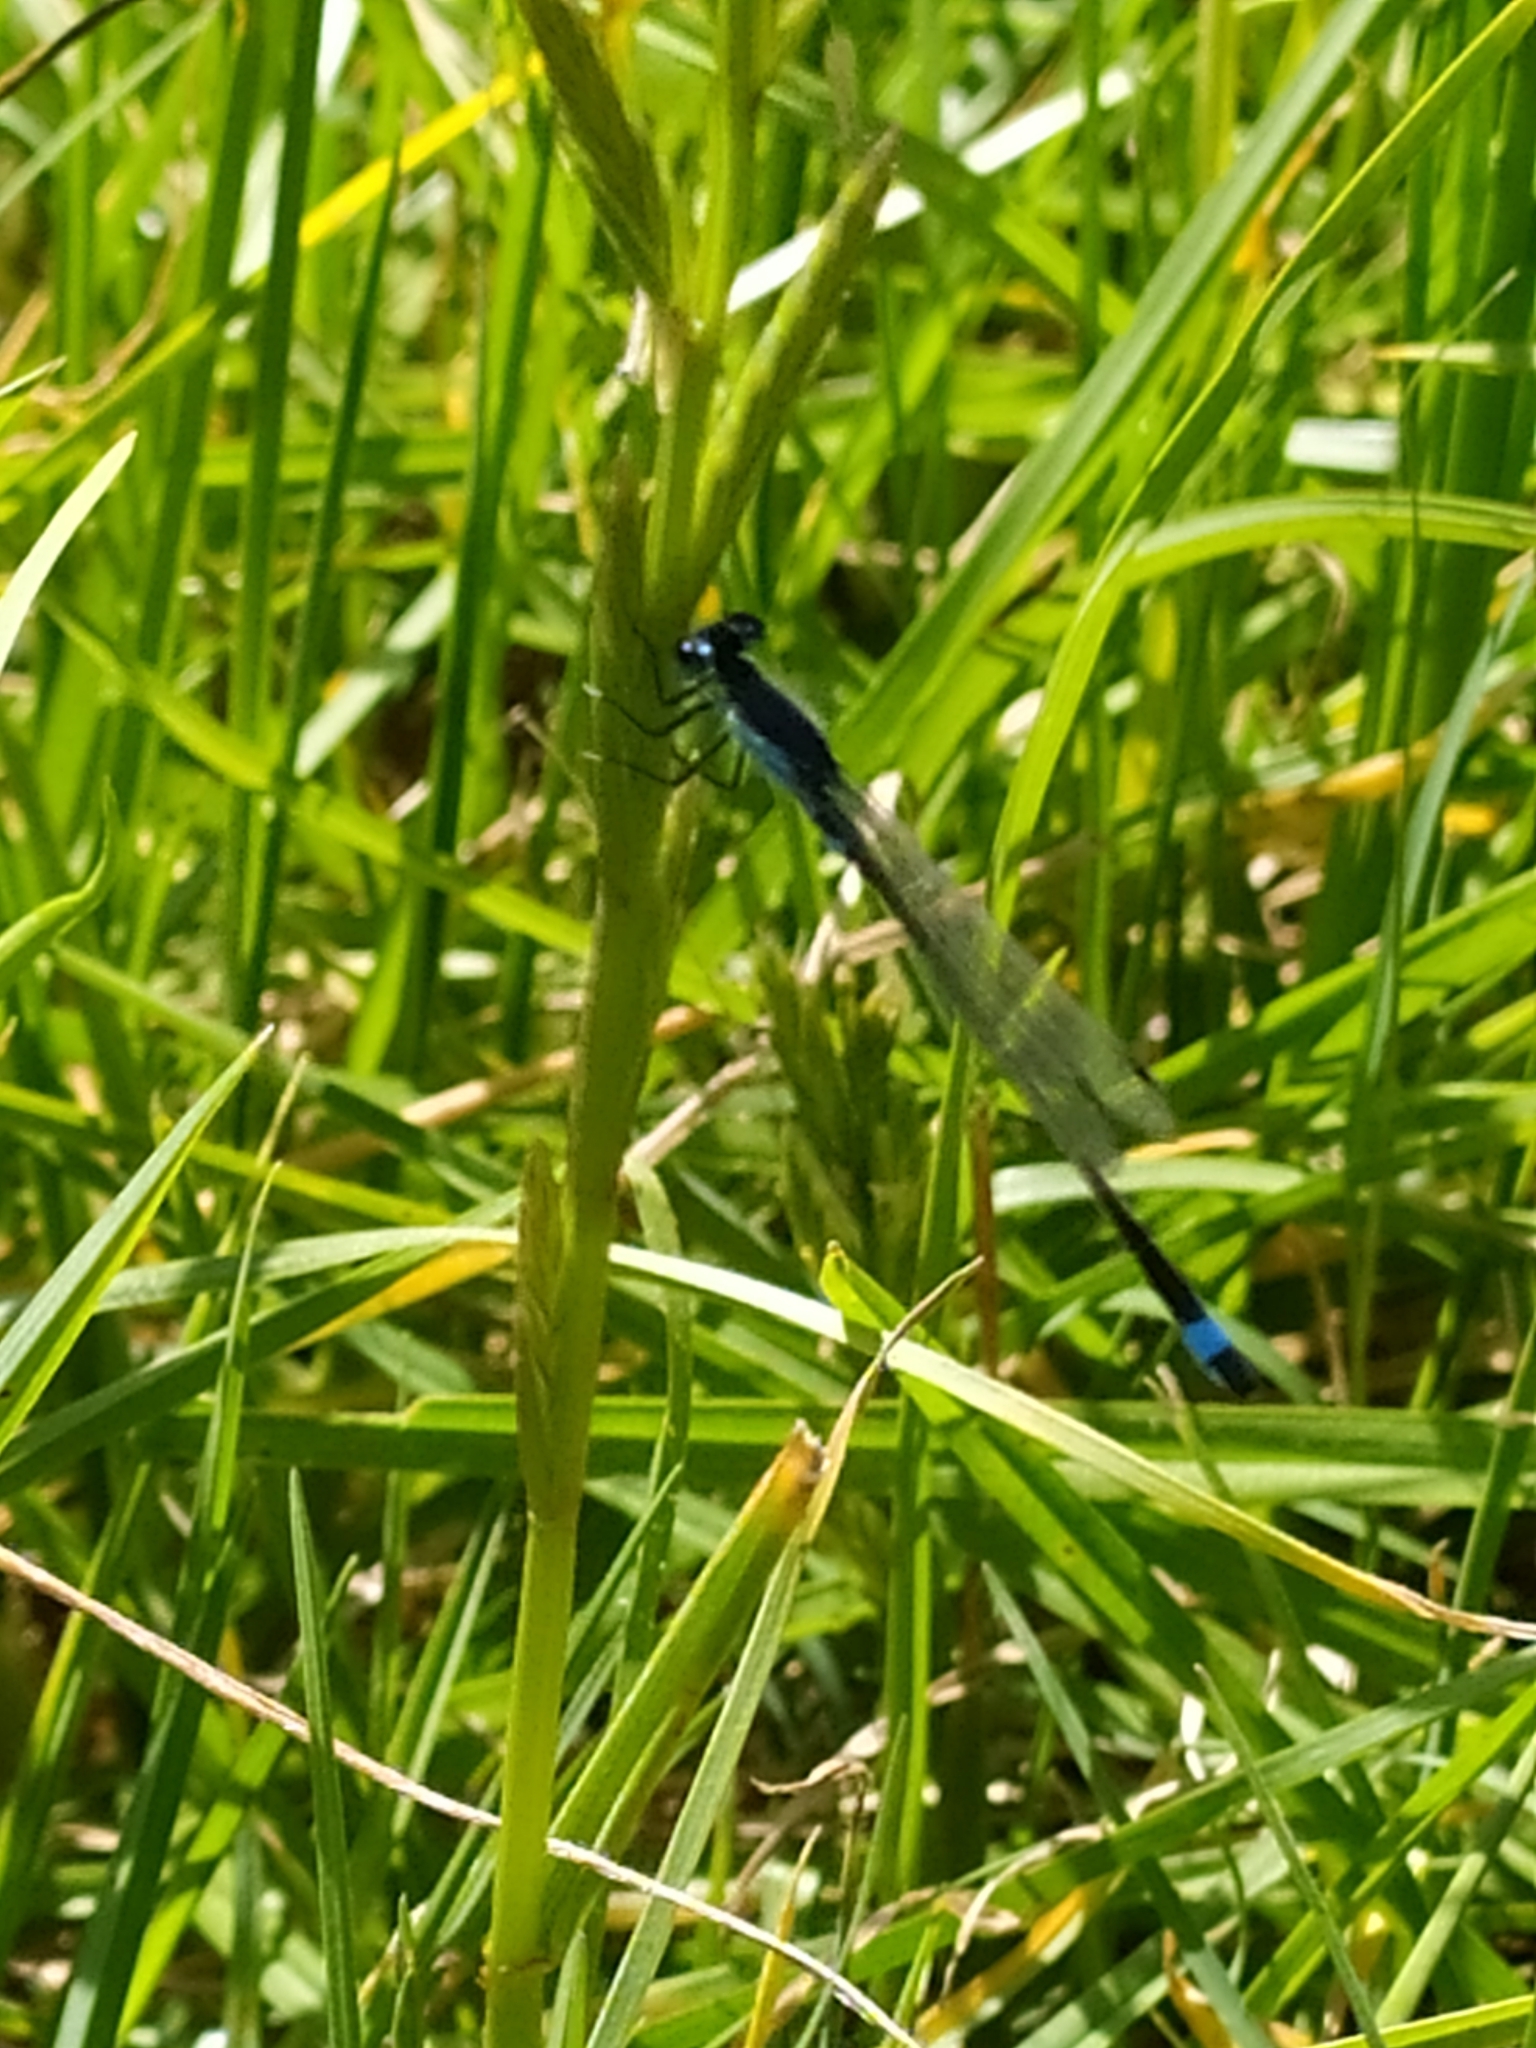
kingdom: Animalia
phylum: Arthropoda
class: Insecta
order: Odonata
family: Coenagrionidae
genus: Ischnura
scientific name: Ischnura senegalensis
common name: Tropical bluetail
